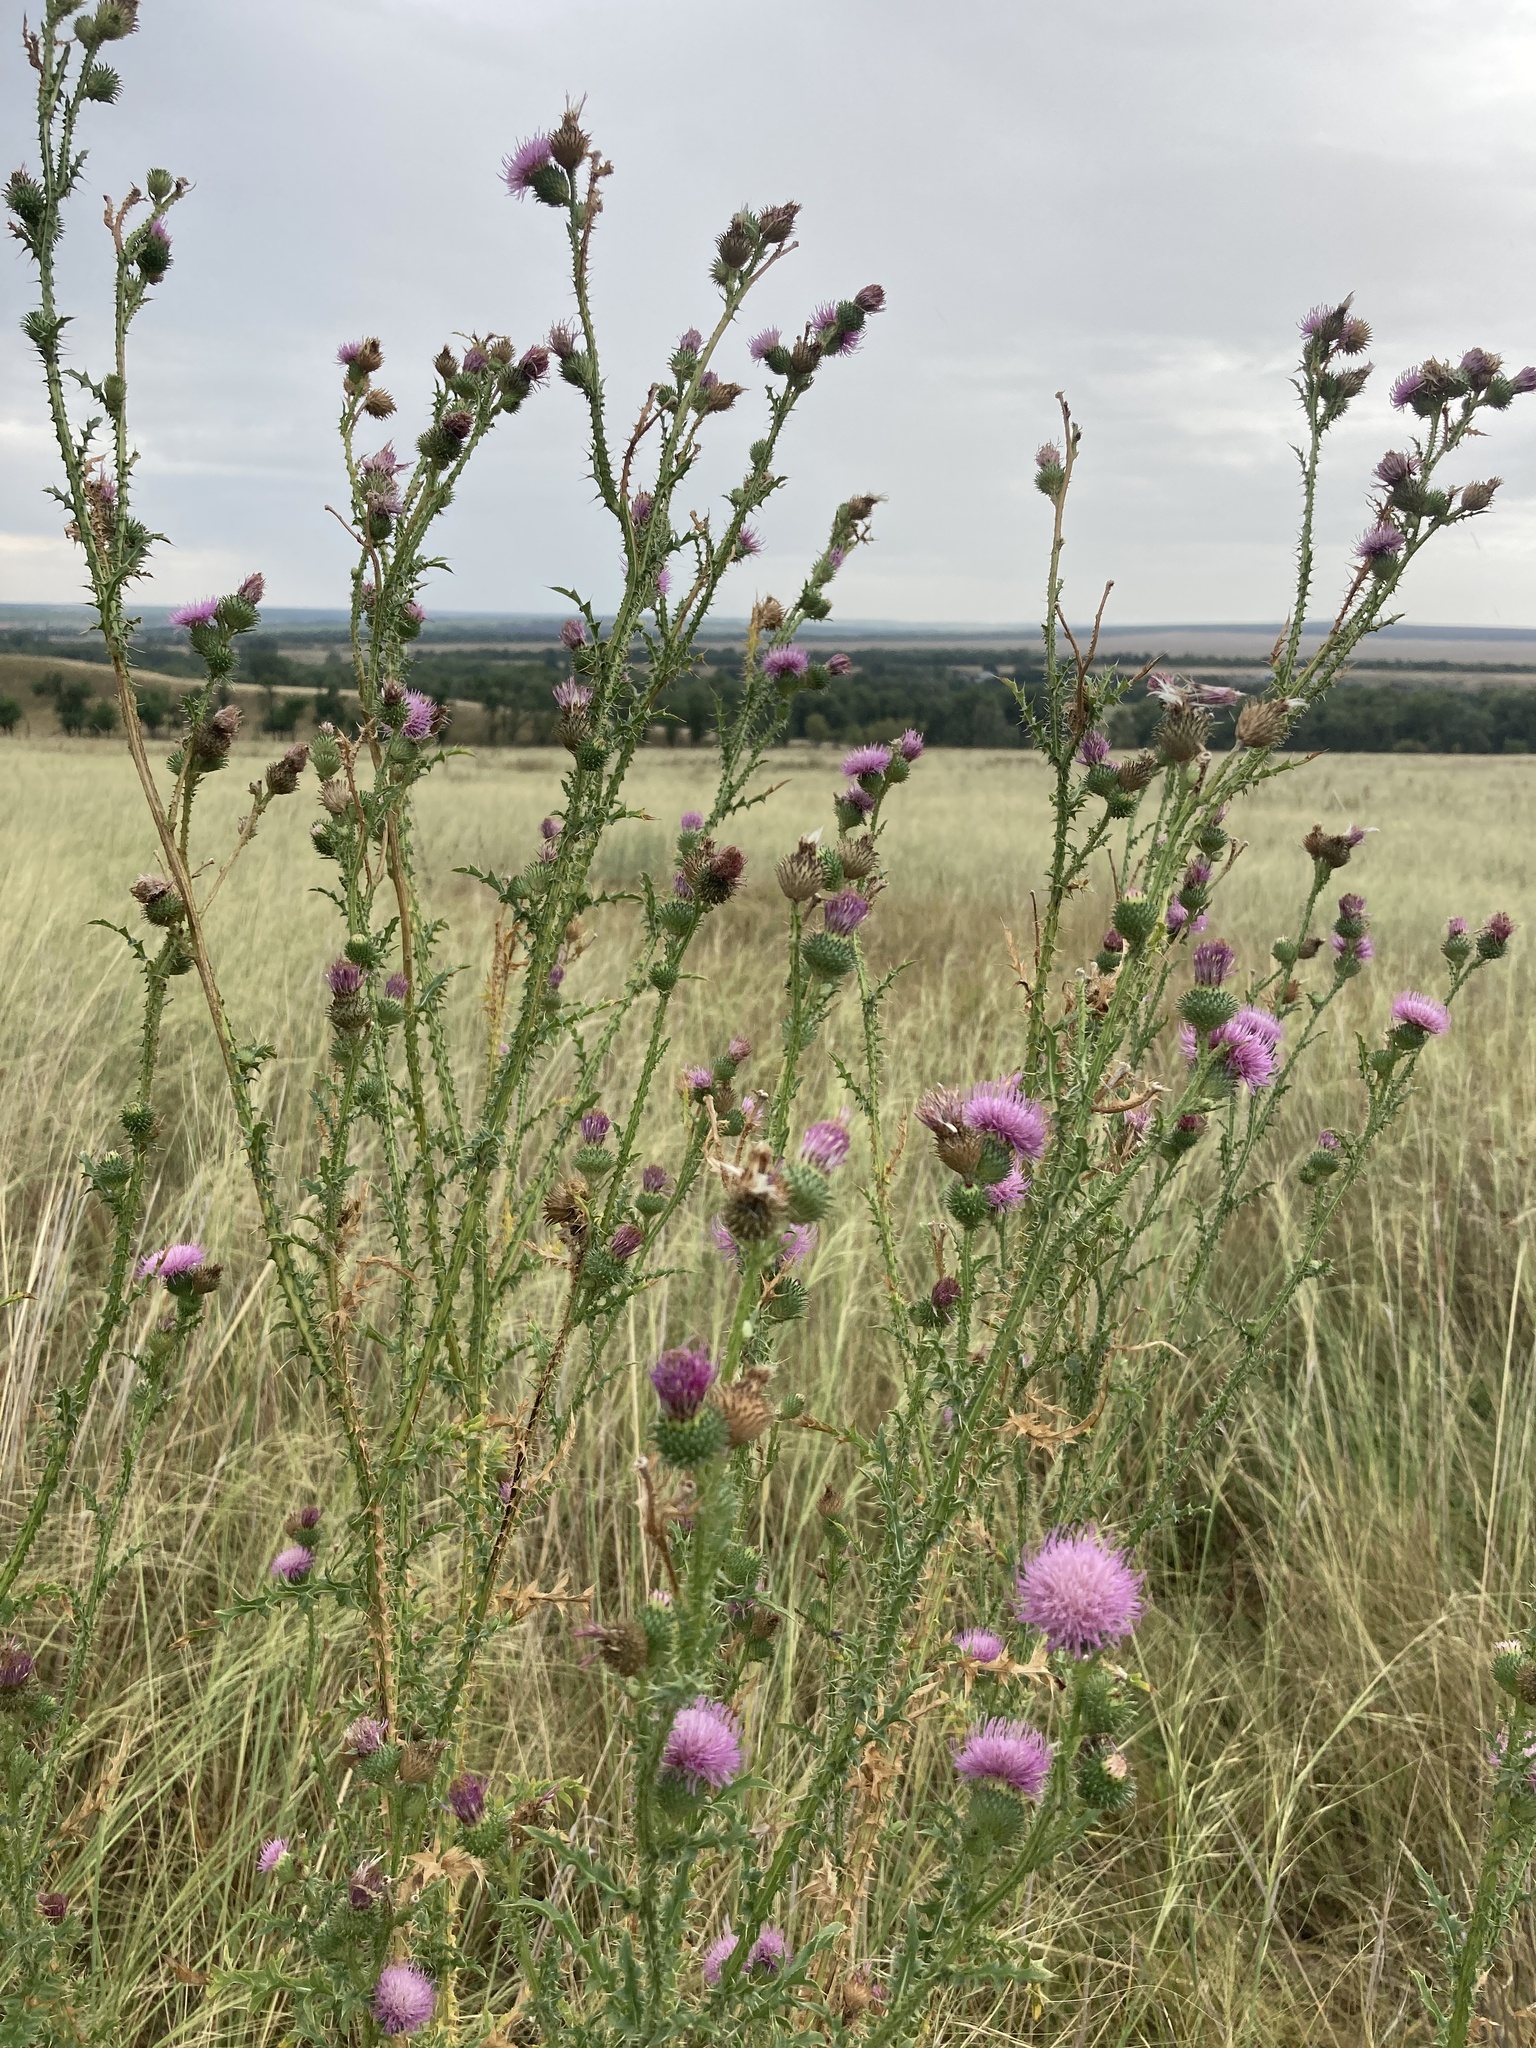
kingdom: Plantae
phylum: Tracheophyta
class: Magnoliopsida
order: Asterales
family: Asteraceae
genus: Carduus
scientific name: Carduus acanthoides
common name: Plumeless thistle
